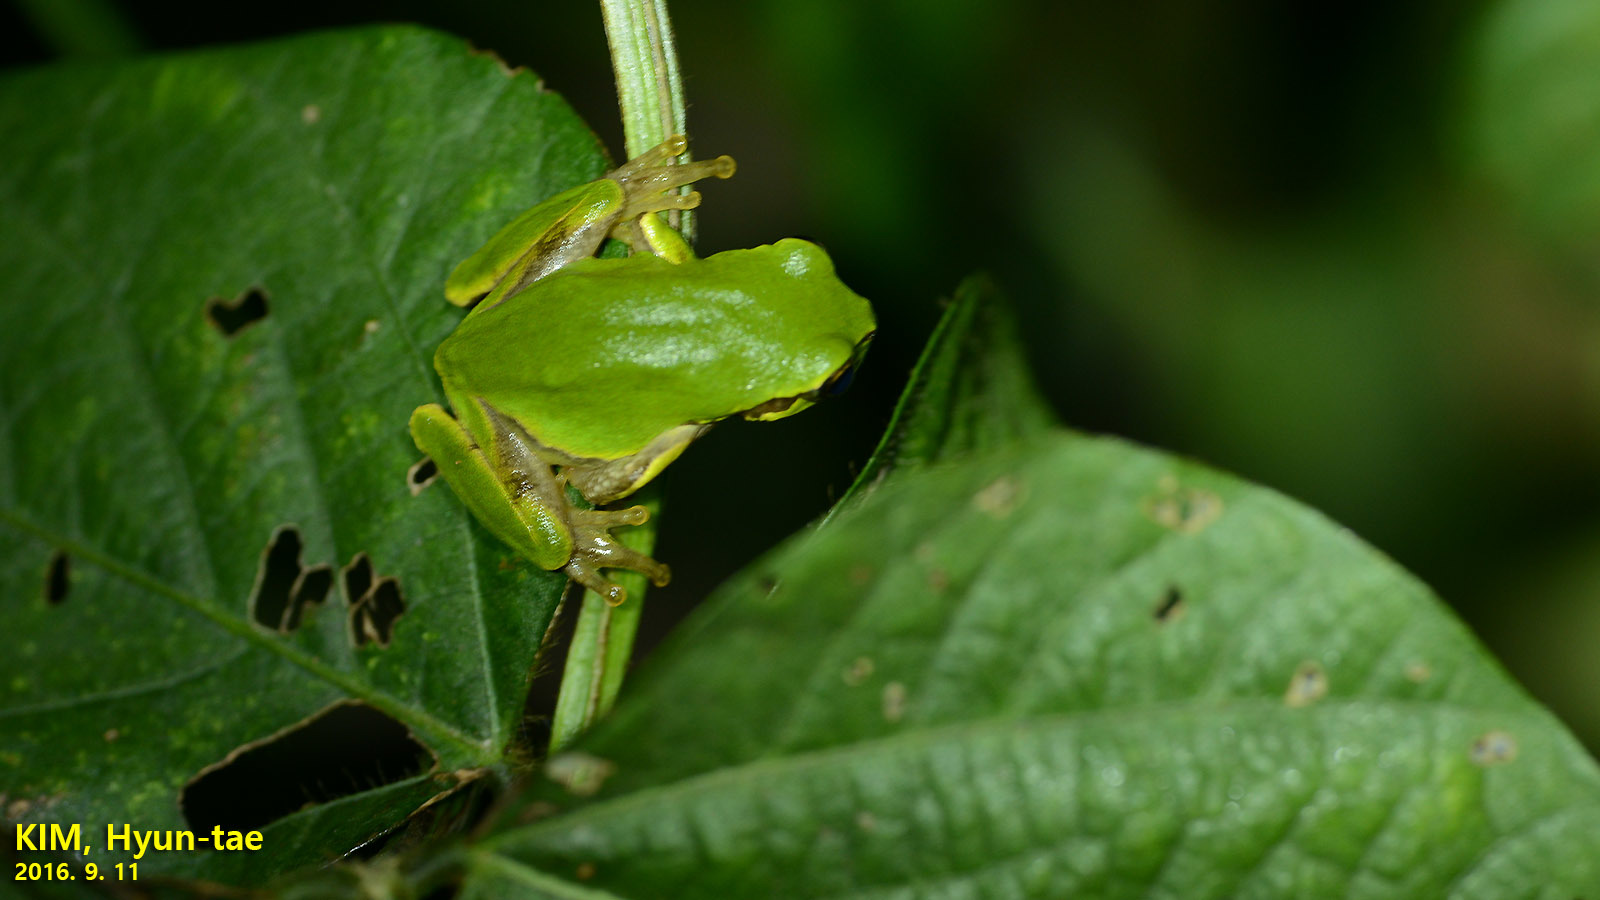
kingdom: Animalia
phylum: Chordata
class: Amphibia
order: Anura
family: Hylidae
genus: Dryophytes
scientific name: Dryophytes japonicus
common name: Japanese treefrog
